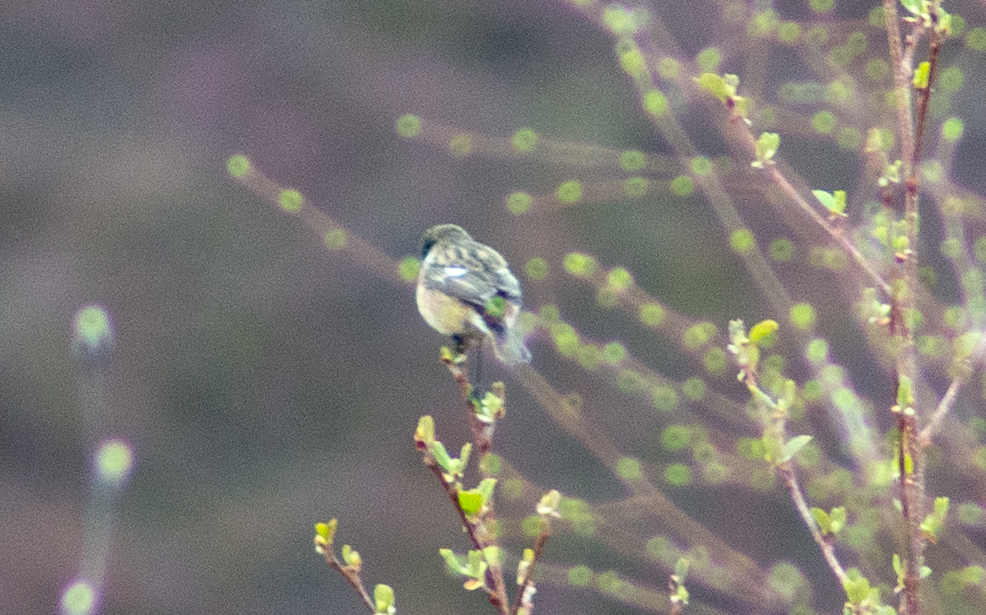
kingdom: Animalia
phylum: Chordata
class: Aves
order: Passeriformes
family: Muscicapidae
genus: Saxicola
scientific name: Saxicola rubicola
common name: European stonechat
